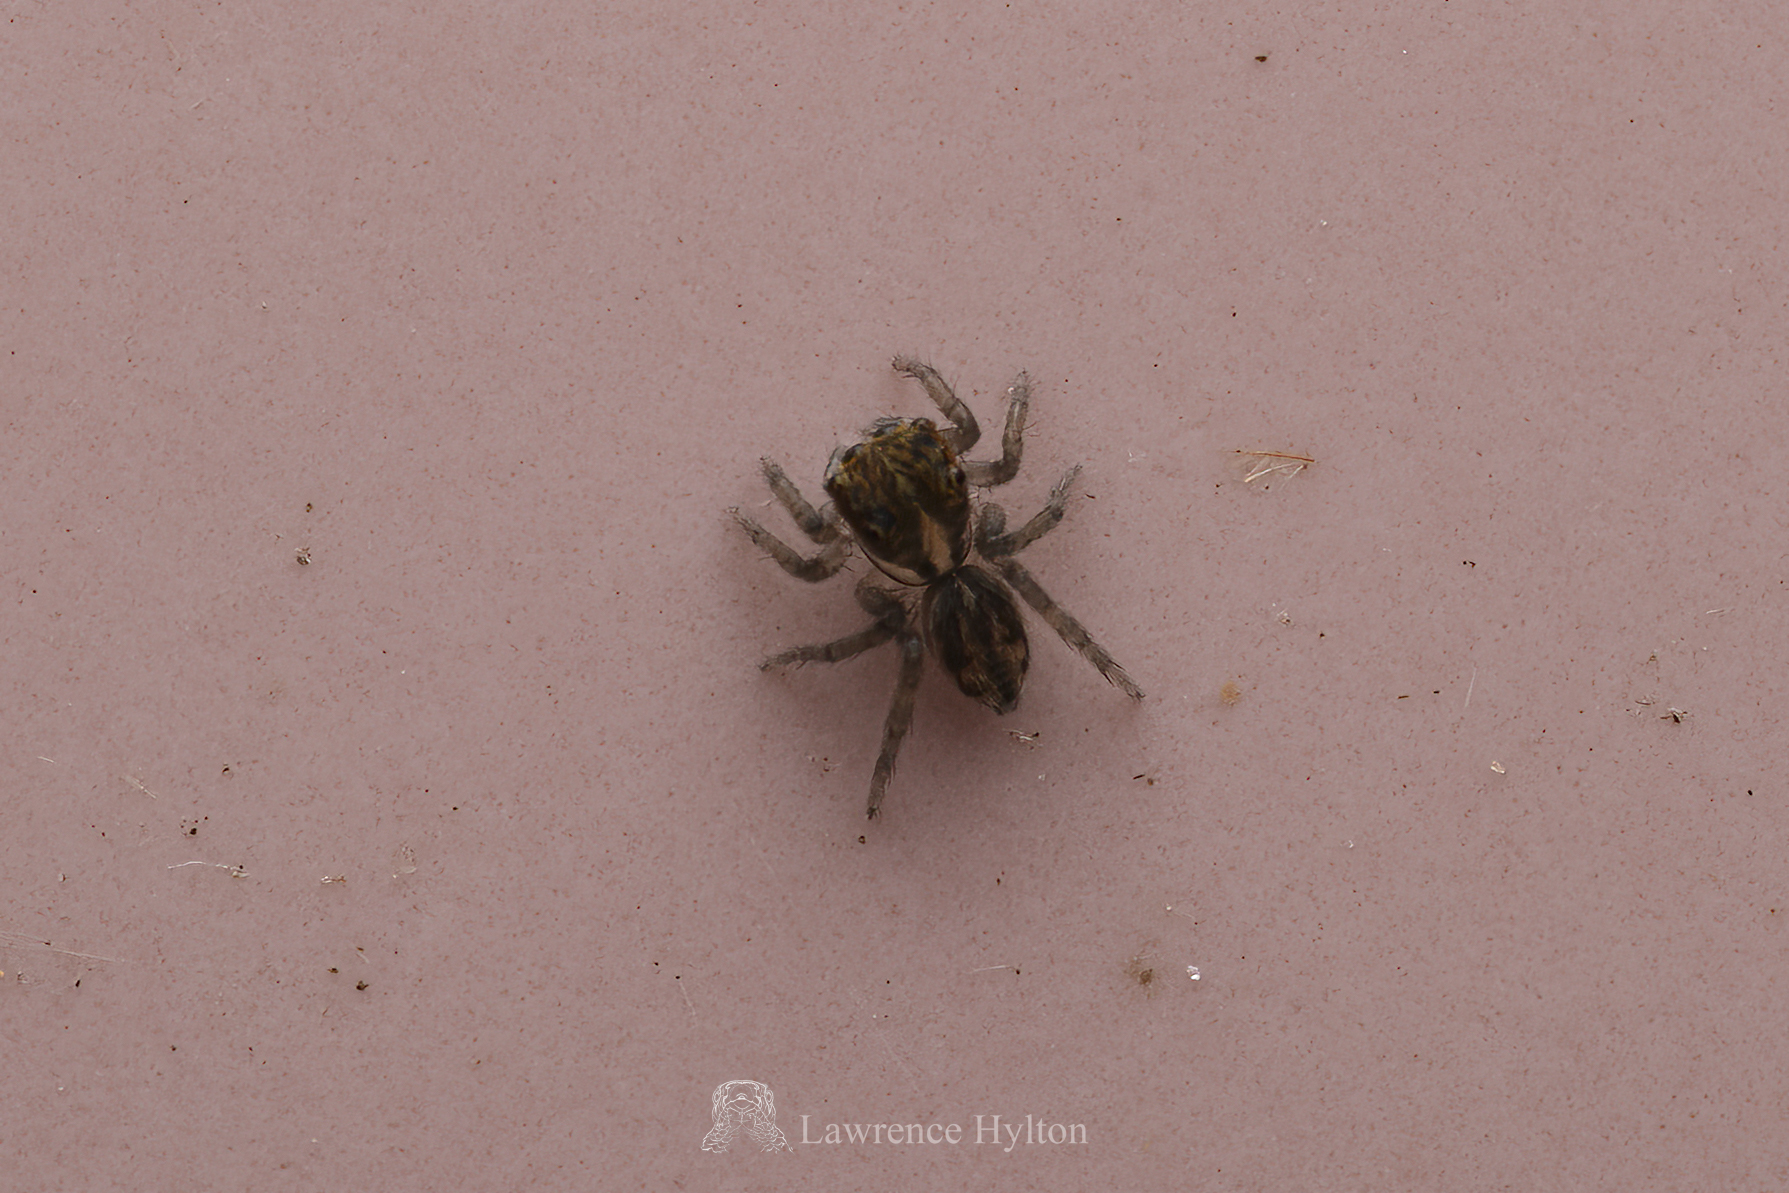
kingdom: Animalia
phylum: Arthropoda
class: Arachnida
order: Araneae
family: Salticidae
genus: Hasarius
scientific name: Hasarius adansoni
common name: Jumping spider
